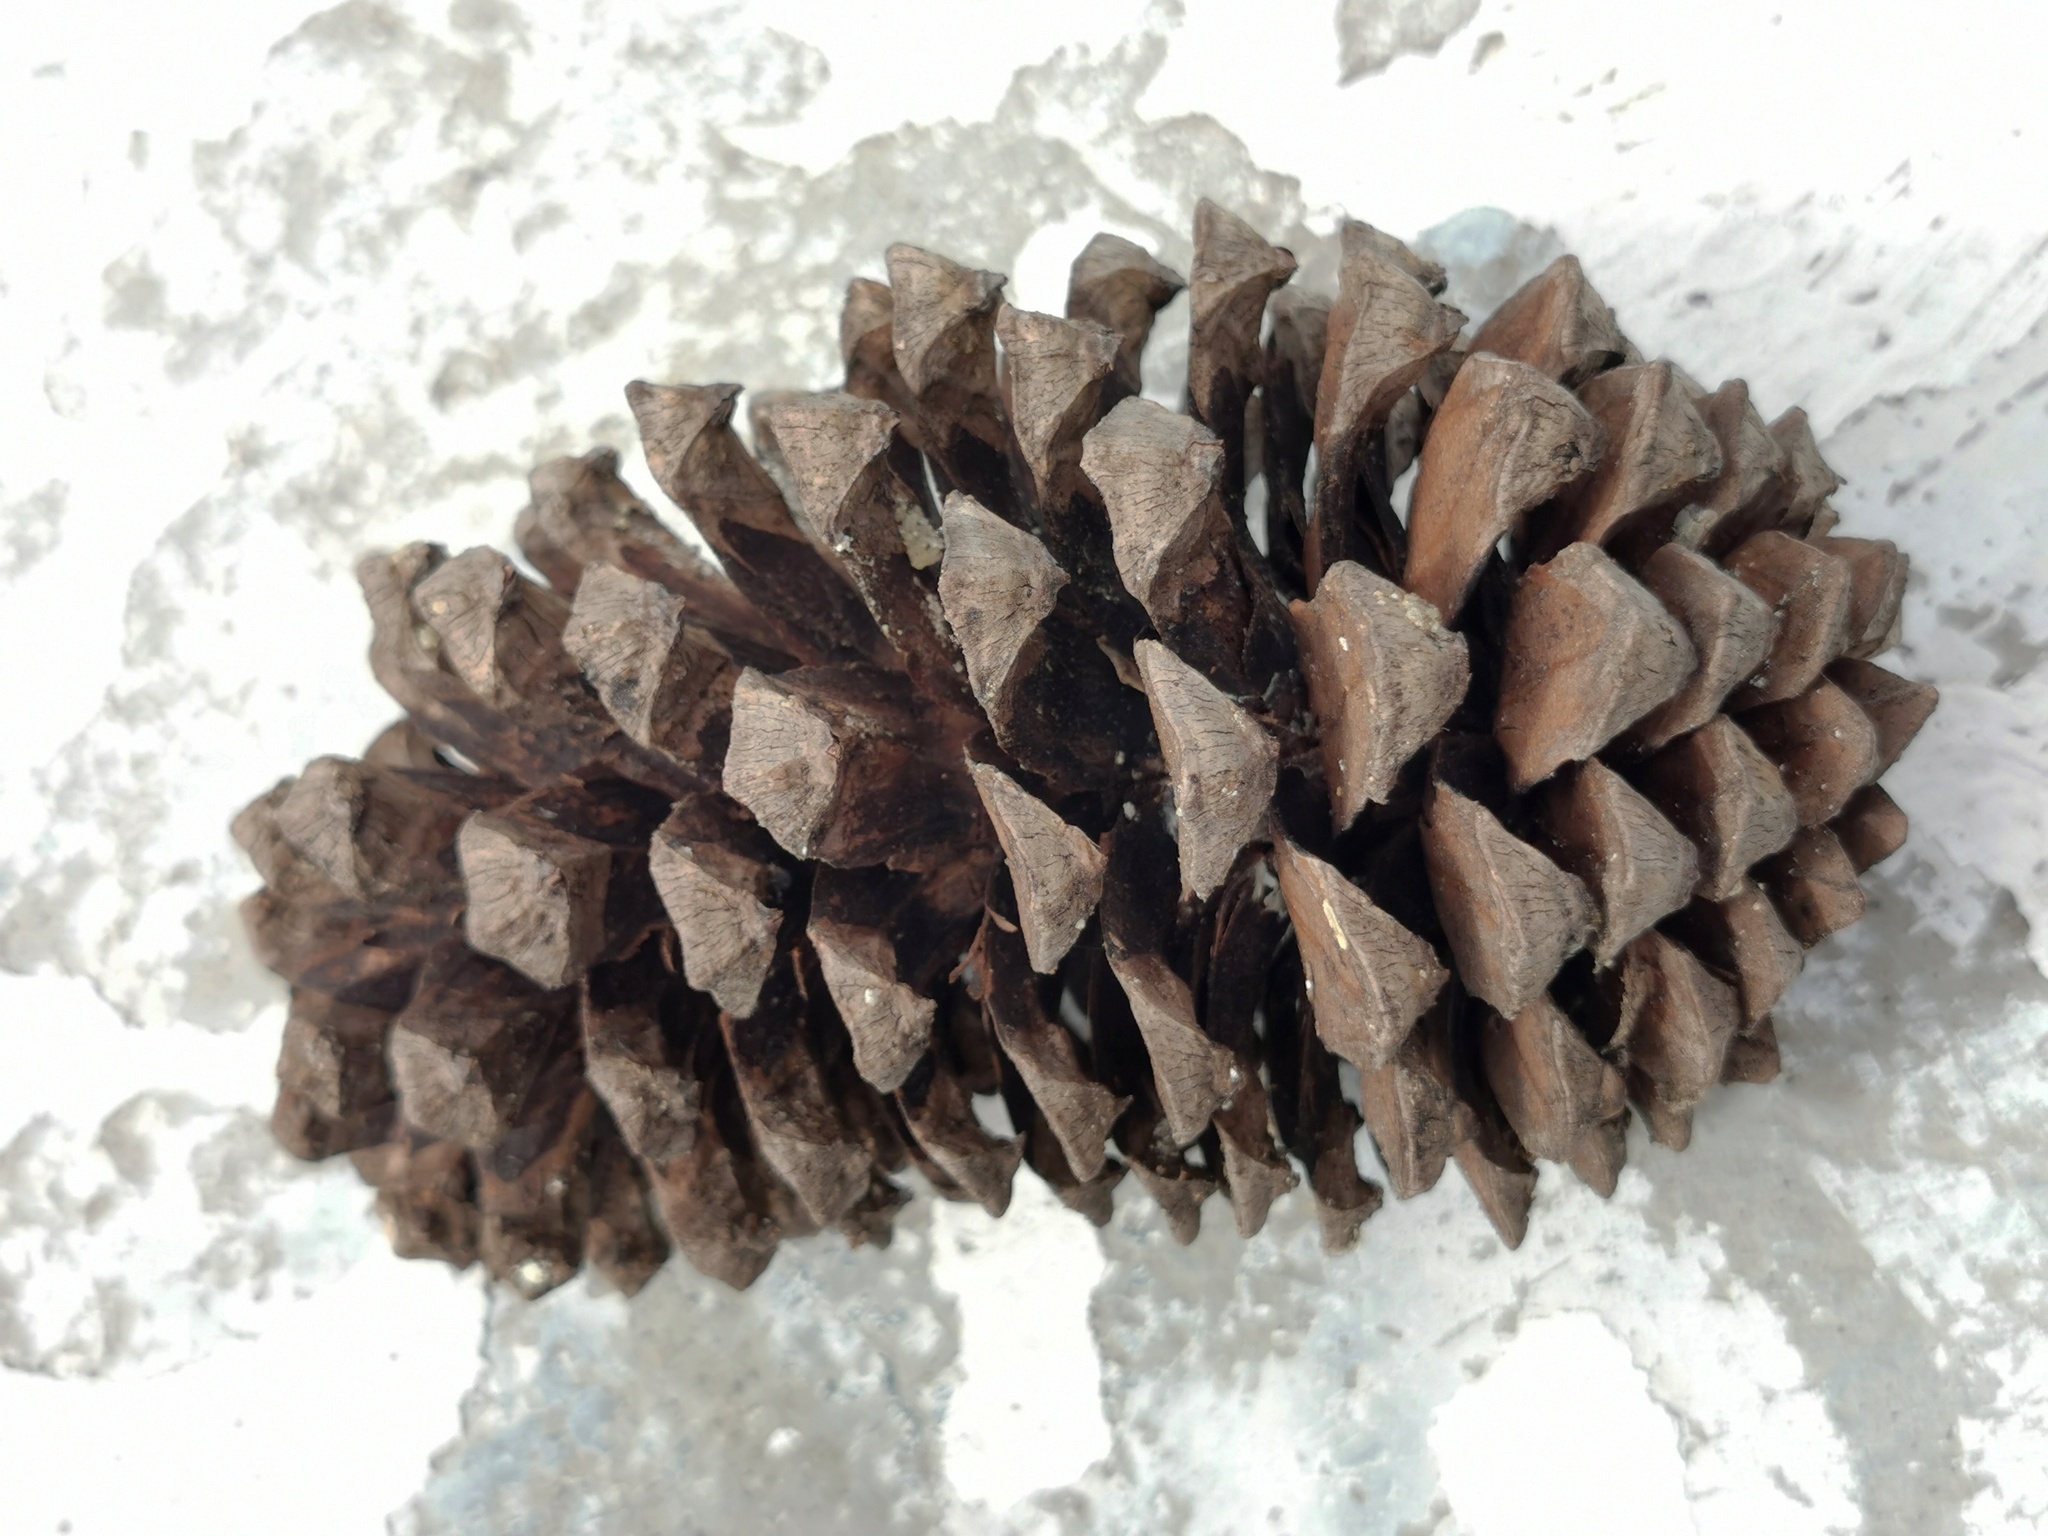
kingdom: Plantae
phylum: Tracheophyta
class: Pinopsida
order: Pinales
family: Pinaceae
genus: Pinus
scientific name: Pinus devoniana
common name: Michoacan pine
